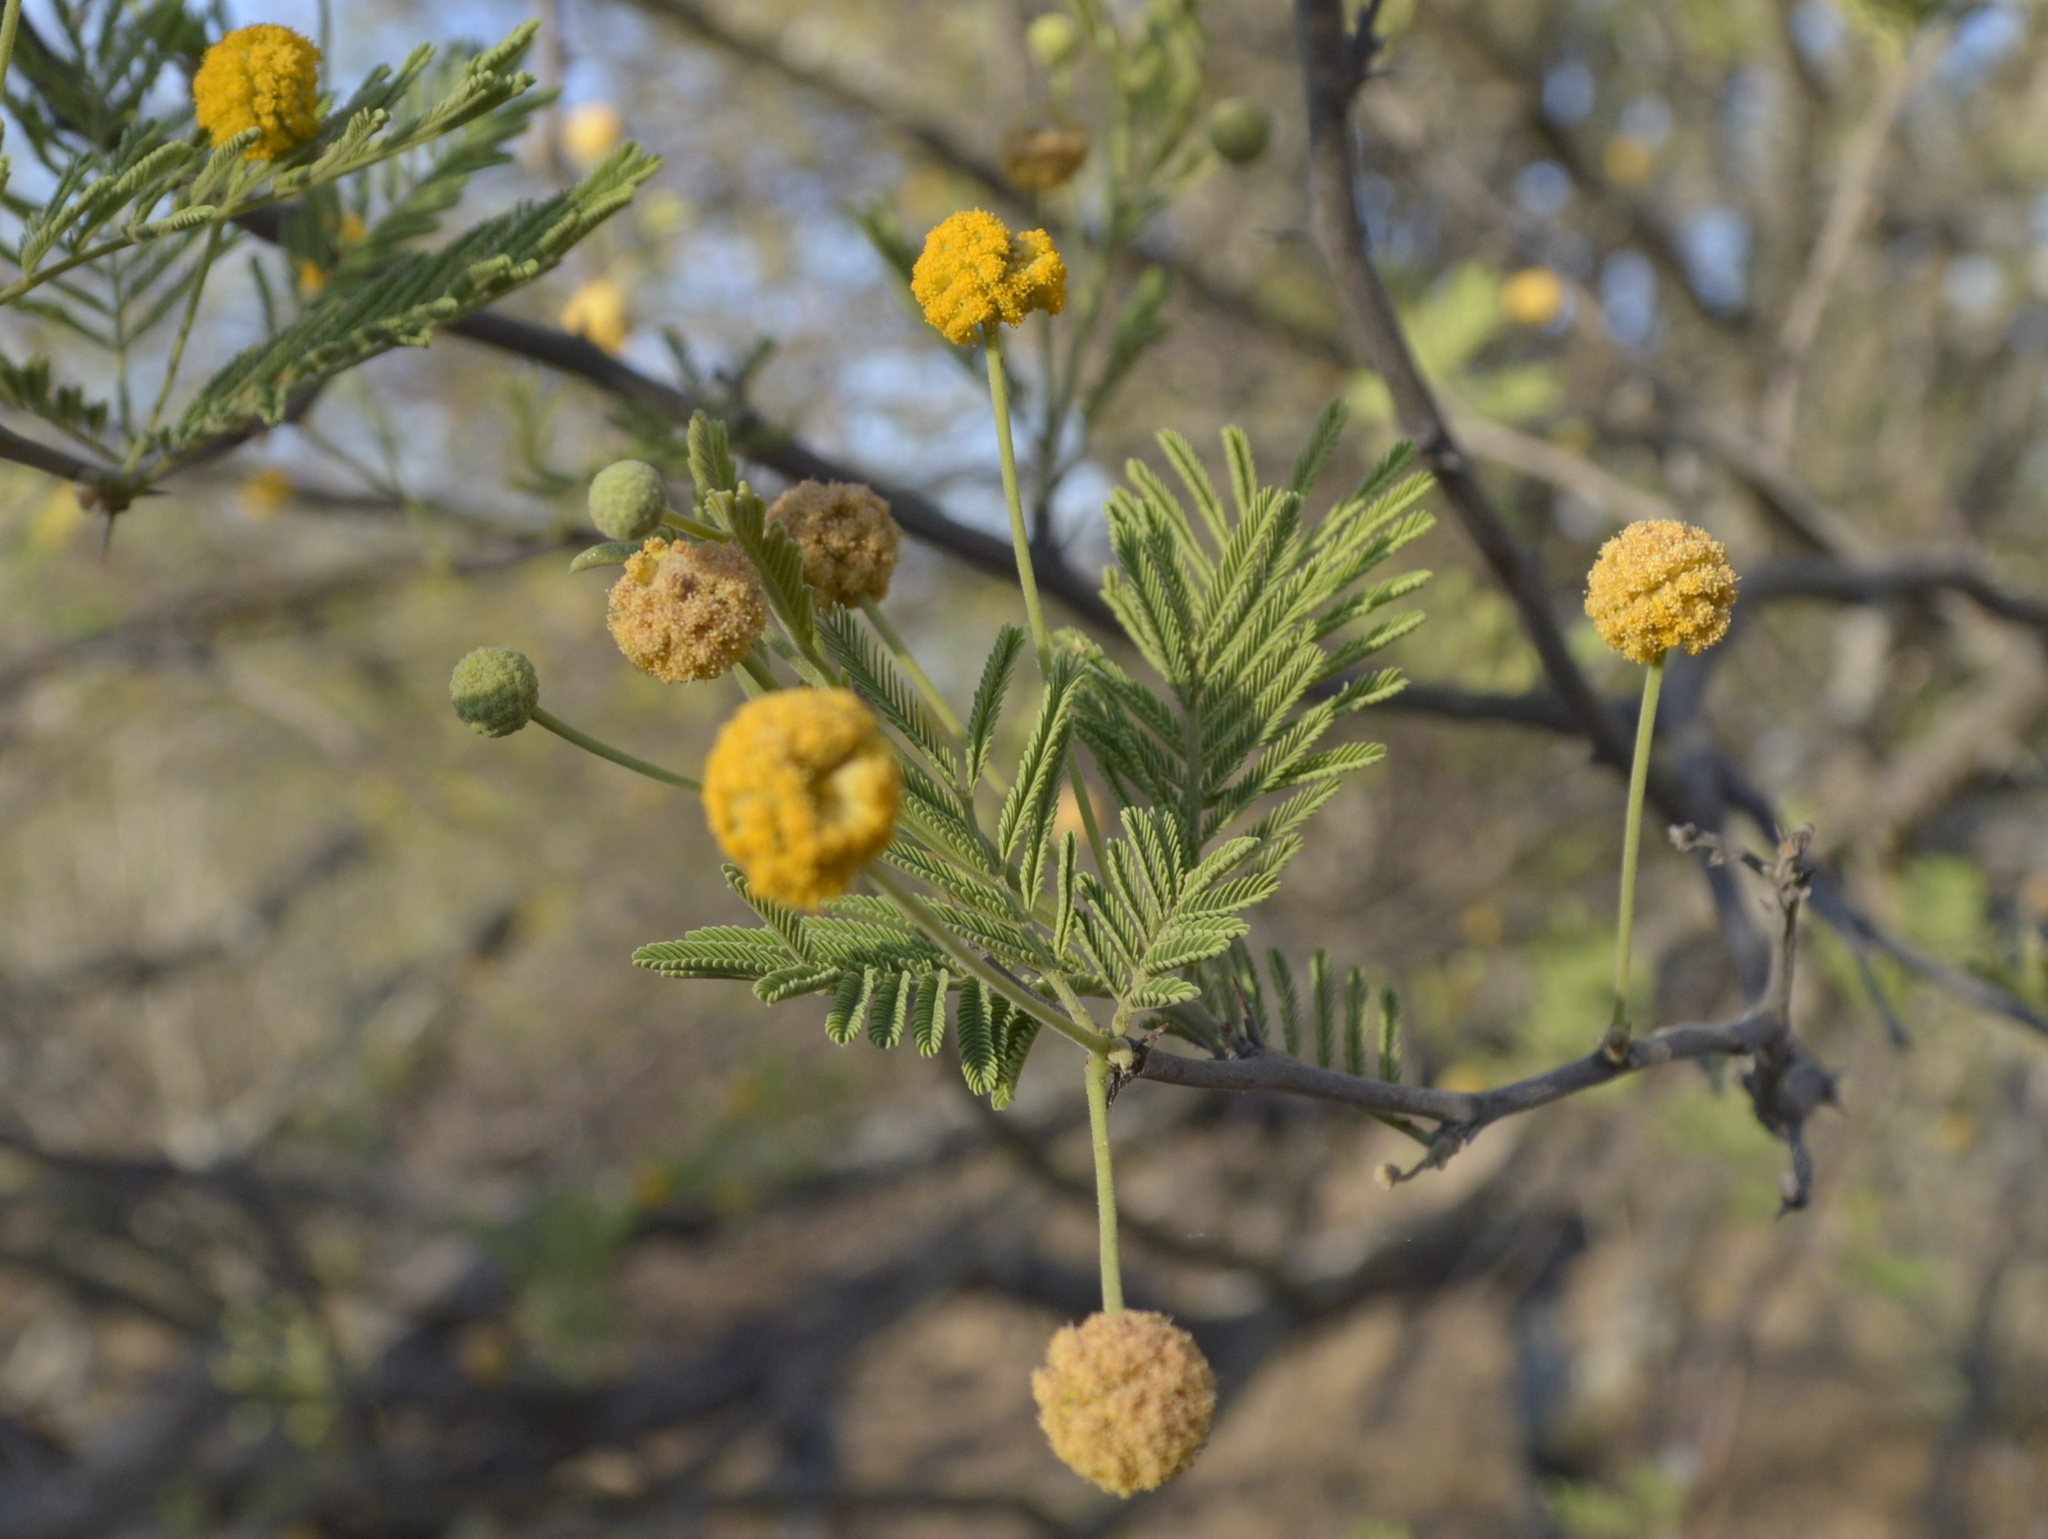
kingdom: Plantae
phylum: Tracheophyta
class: Magnoliopsida
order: Fabales
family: Fabaceae
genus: Vachellia
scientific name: Vachellia aroma
